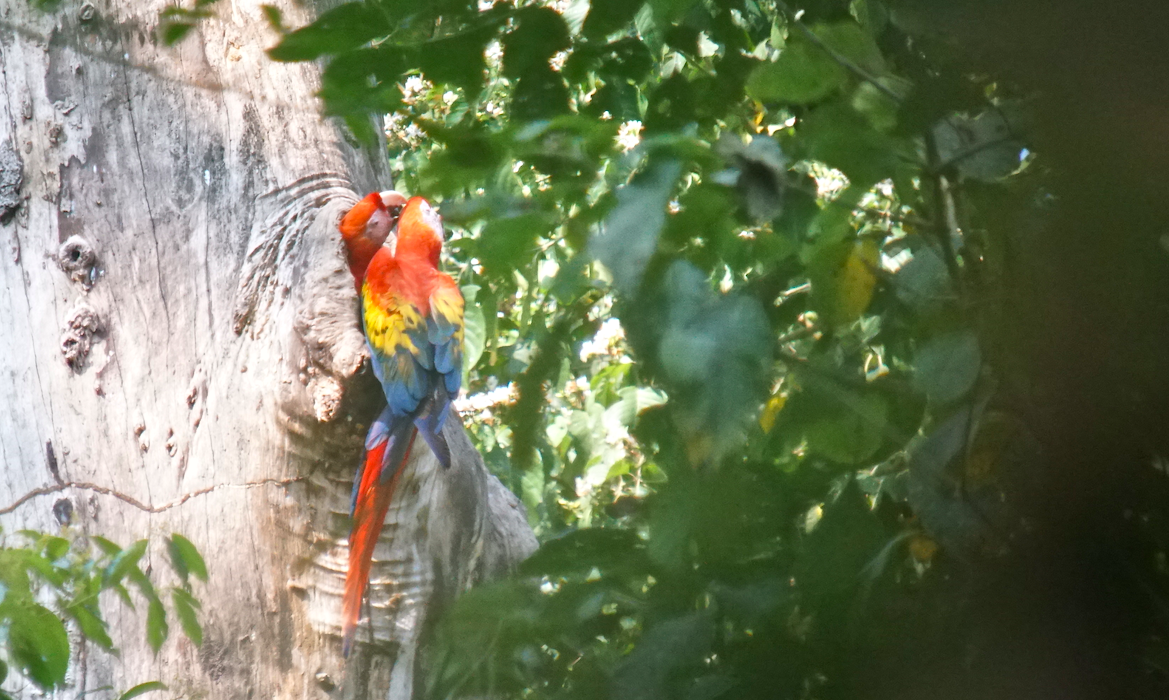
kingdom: Animalia
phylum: Chordata
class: Aves
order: Psittaciformes
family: Psittacidae
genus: Ara
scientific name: Ara macao
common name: Scarlet macaw
